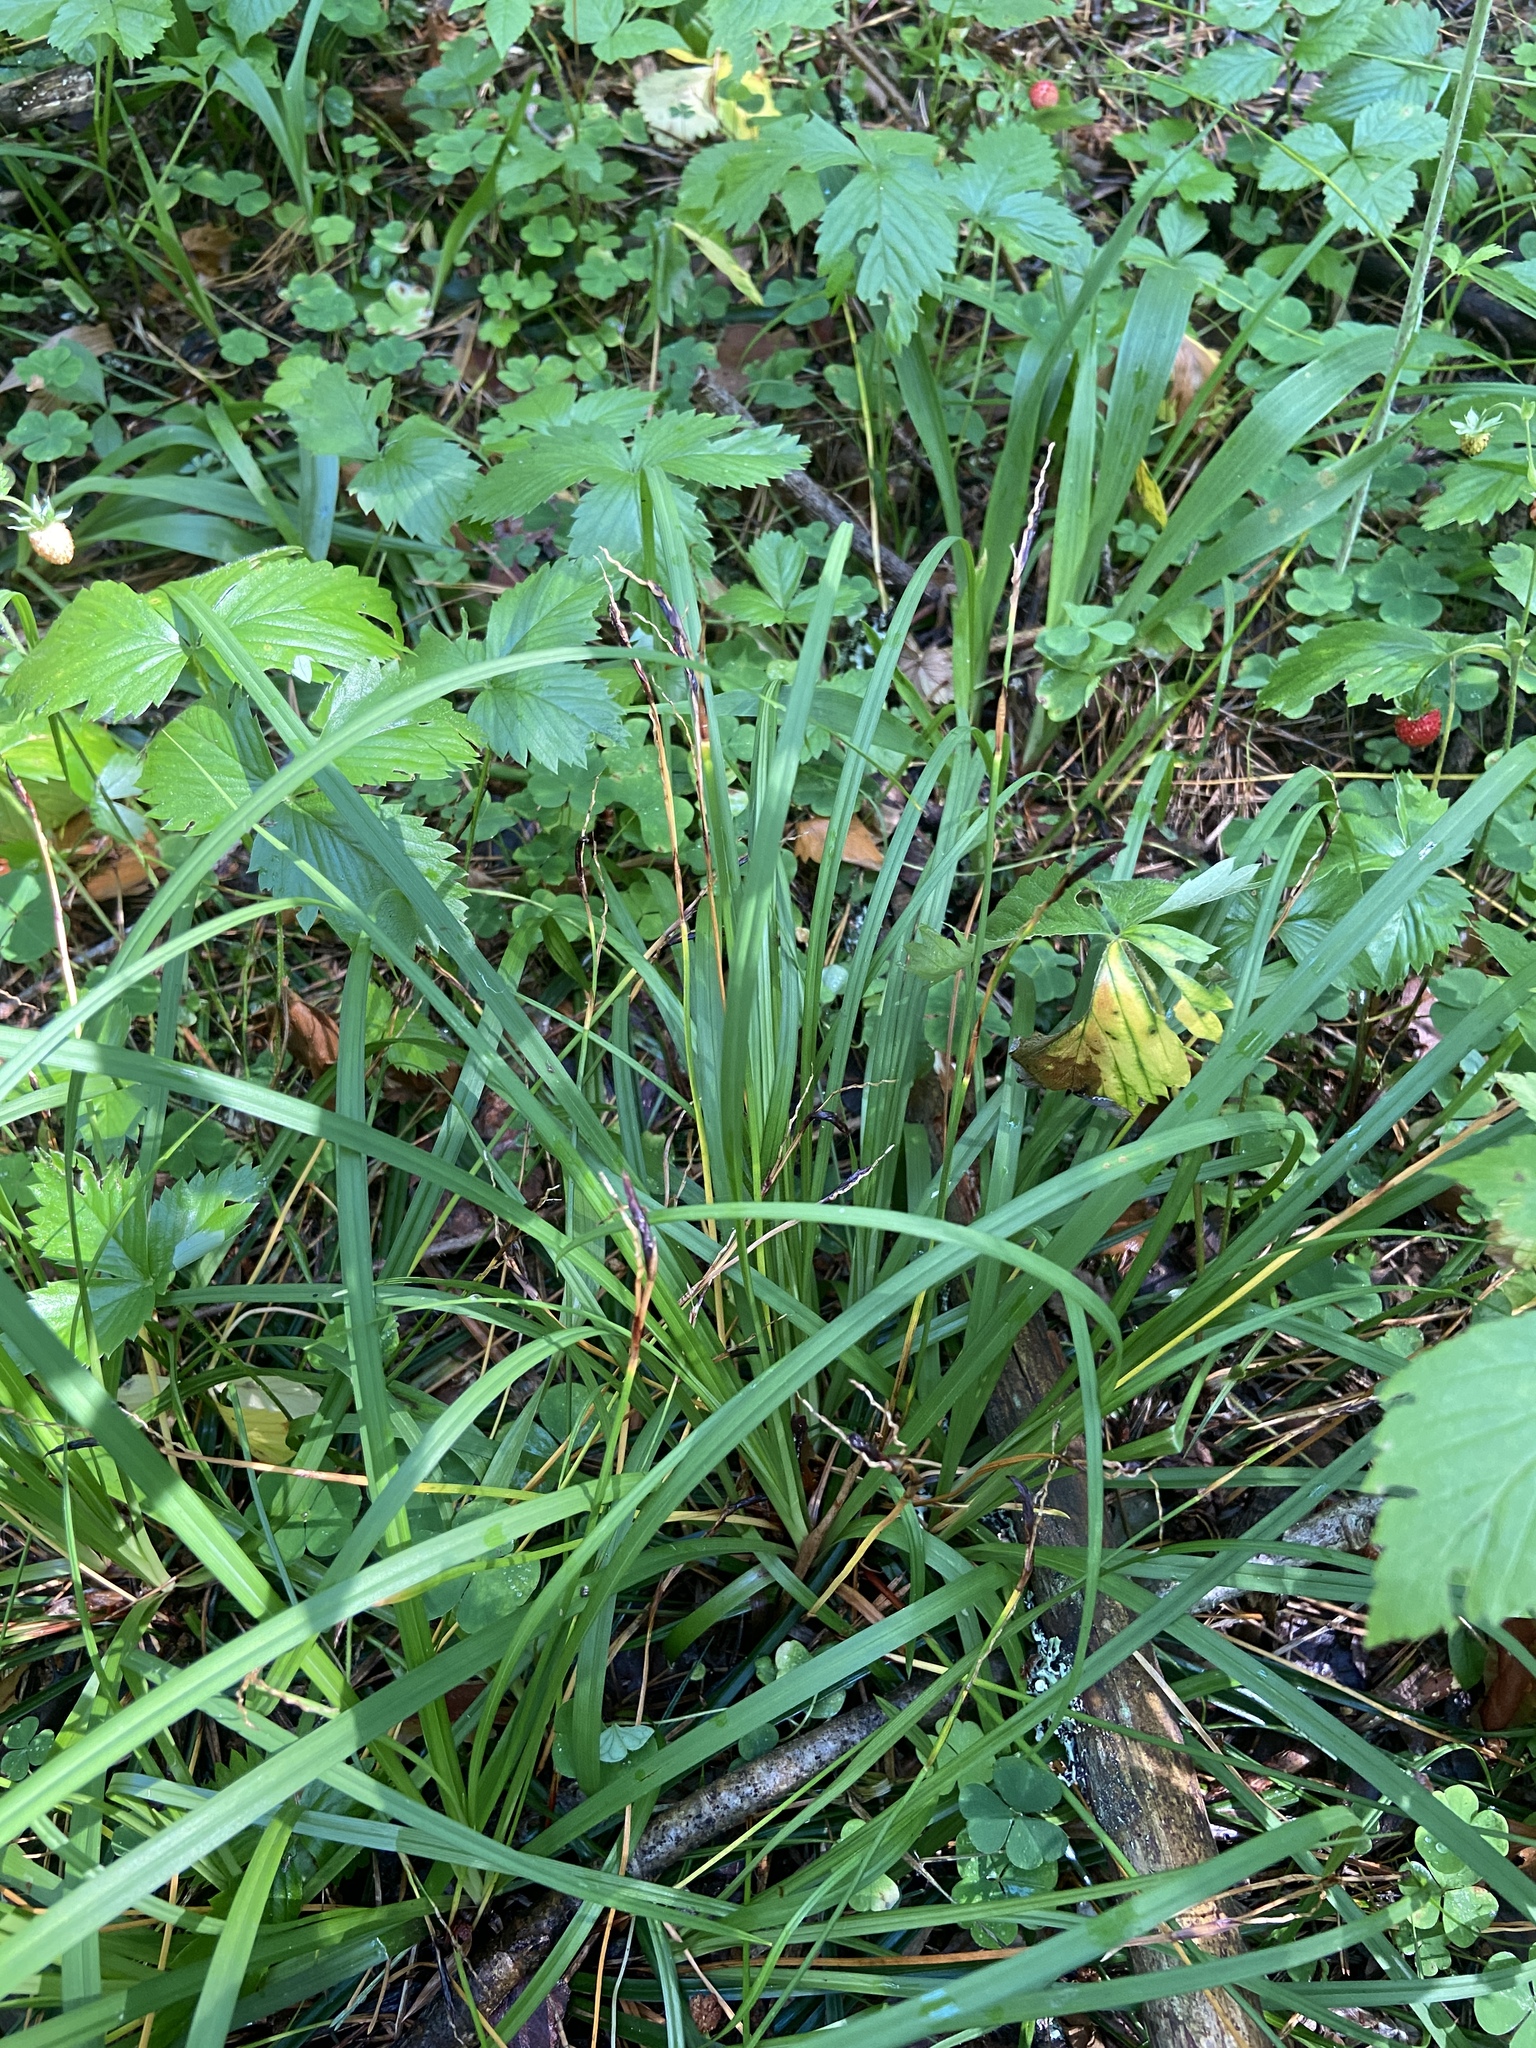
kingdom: Plantae
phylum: Tracheophyta
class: Liliopsida
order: Poales
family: Cyperaceae
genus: Carex
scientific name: Carex digitata
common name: Fingered sedge
